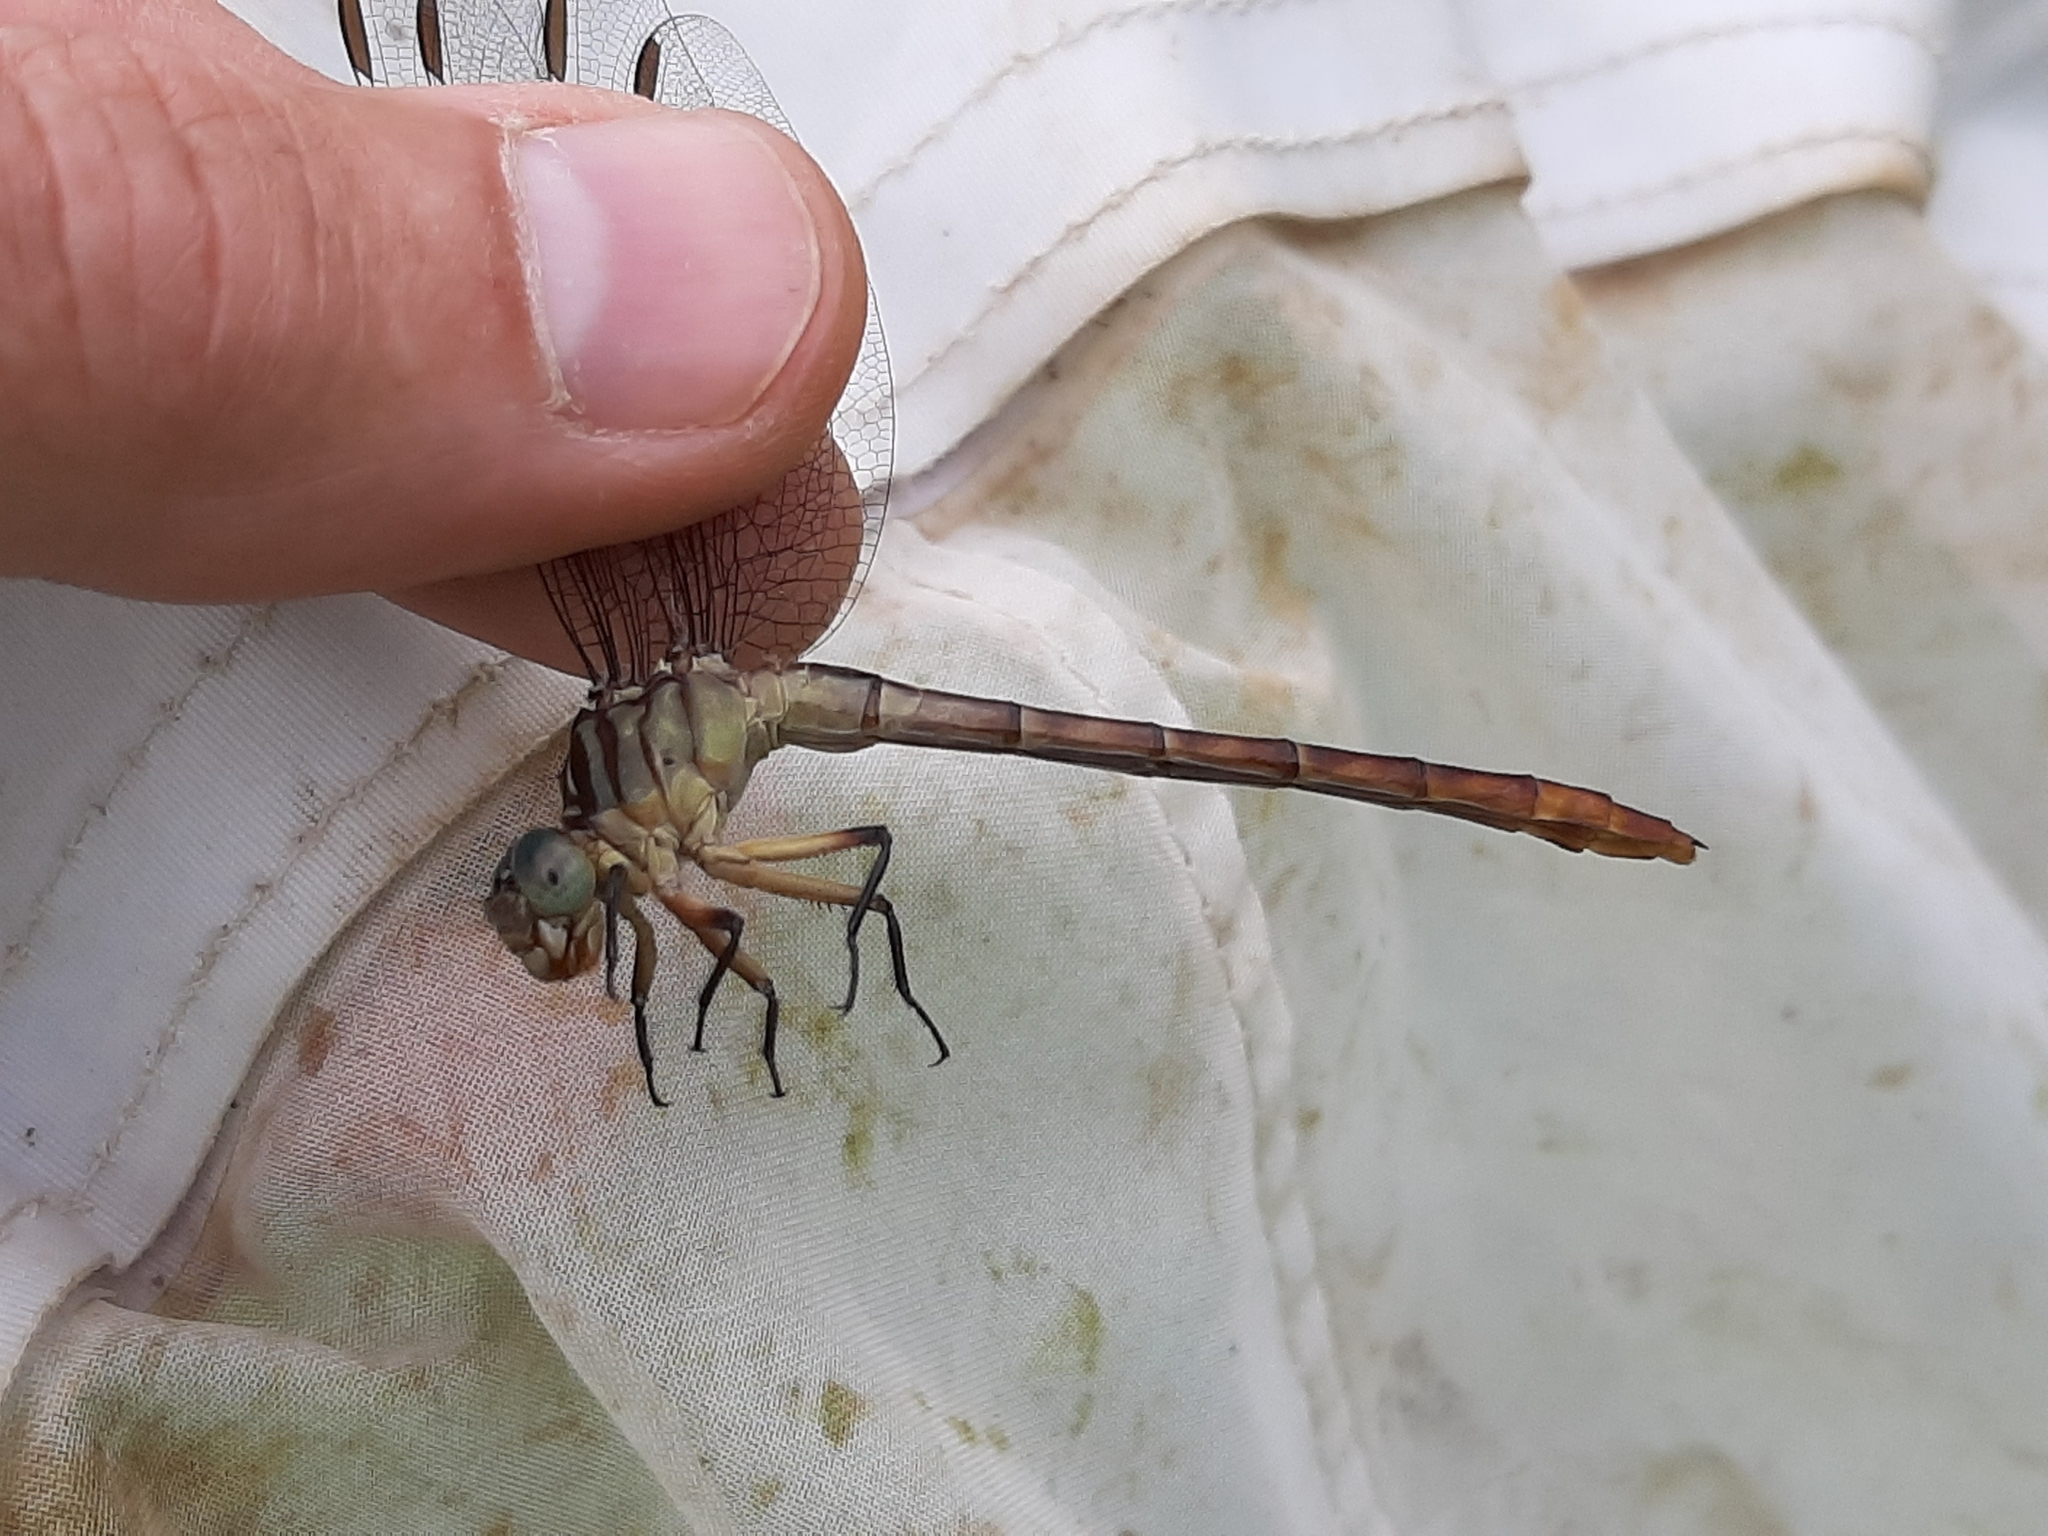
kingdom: Animalia
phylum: Arthropoda
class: Insecta
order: Odonata
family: Gomphidae
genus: Stylurus
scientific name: Stylurus plagiatus
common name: Russet-tipped clubtail
